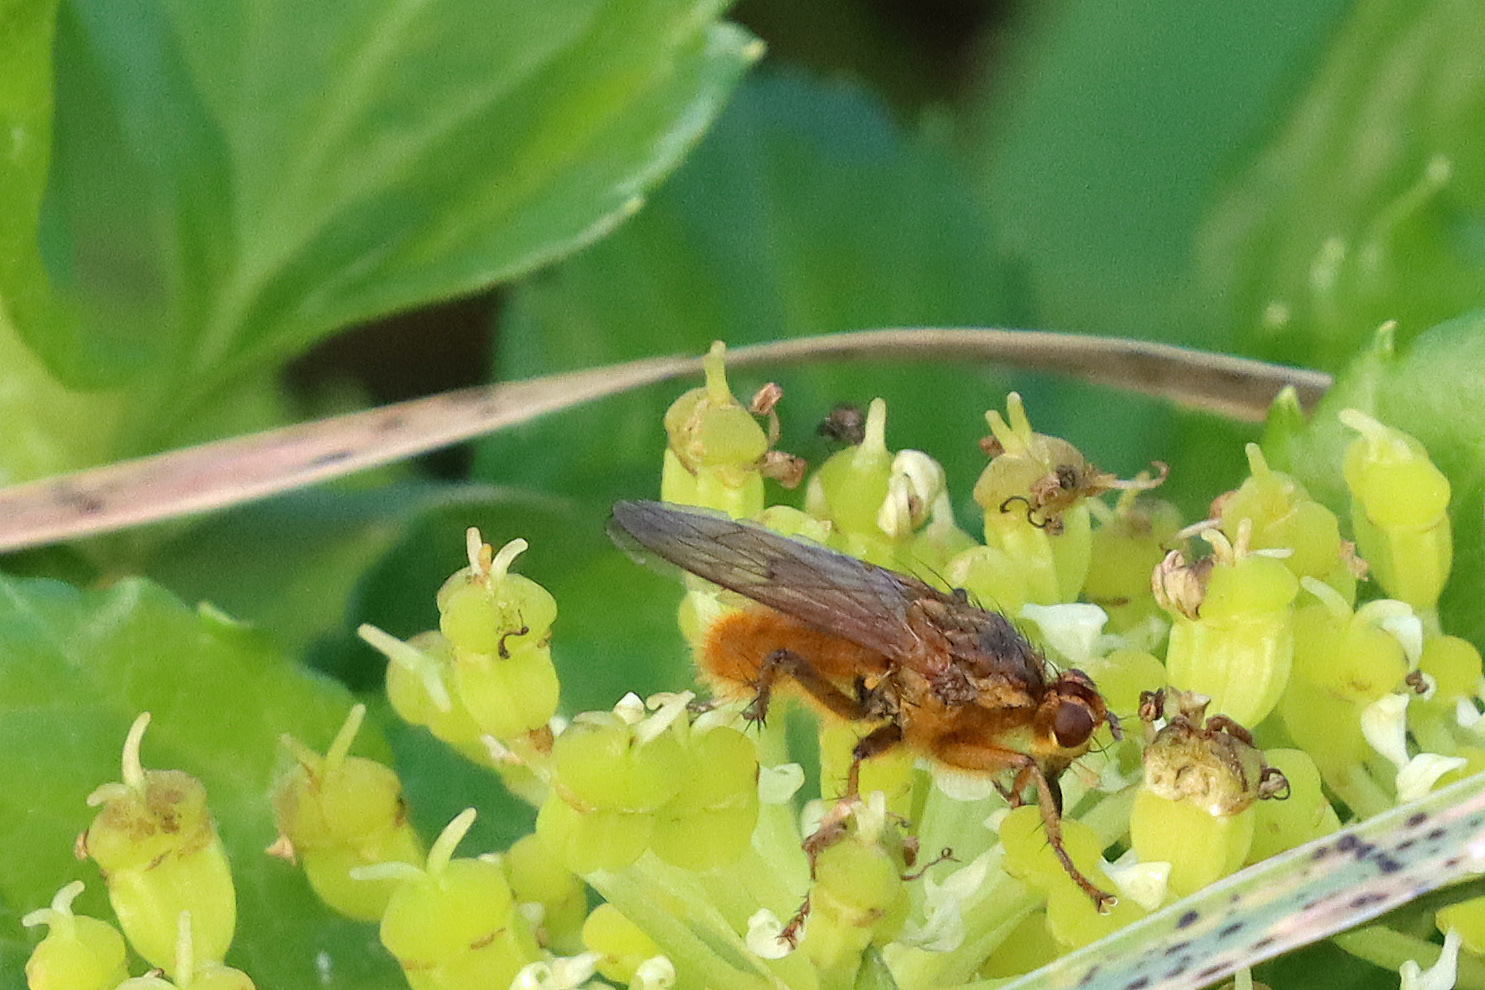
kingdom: Animalia
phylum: Arthropoda
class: Insecta
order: Diptera
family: Scathophagidae
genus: Scathophaga
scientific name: Scathophaga stercoraria
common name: Yellow dung fly
